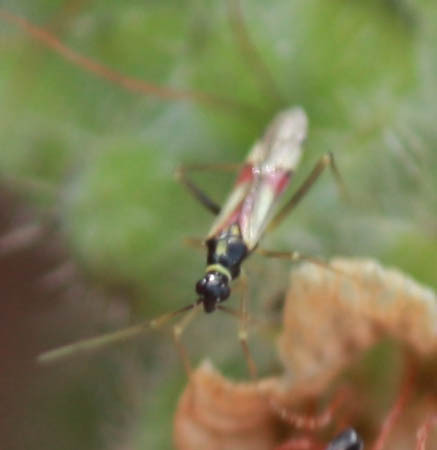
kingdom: Animalia
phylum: Arthropoda
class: Insecta
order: Hemiptera
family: Miridae
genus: Tupiocoris
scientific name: Tupiocoris californicus
